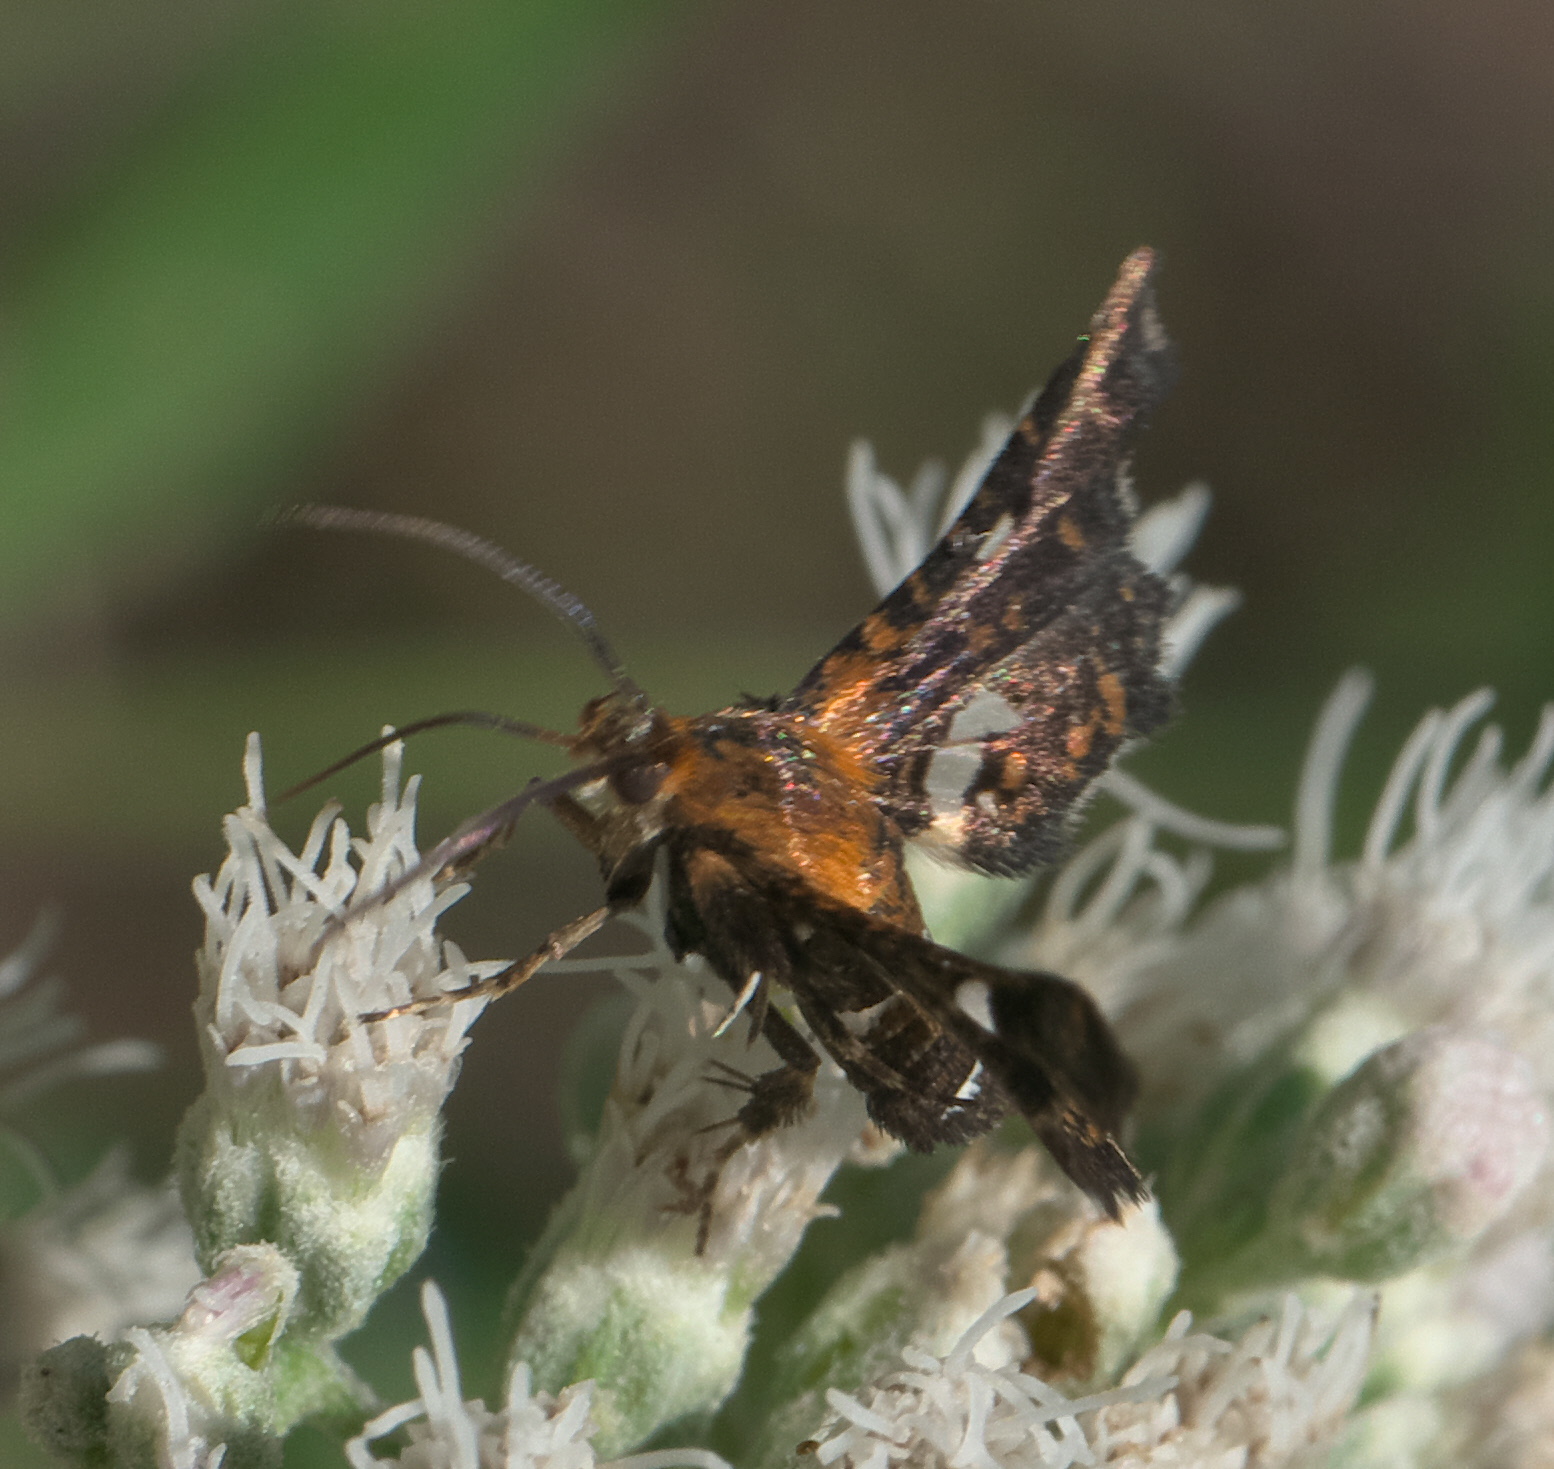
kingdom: Animalia
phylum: Arthropoda
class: Insecta
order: Lepidoptera
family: Thyrididae
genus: Thyris
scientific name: Thyris maculata
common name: Spotted thyris moth
